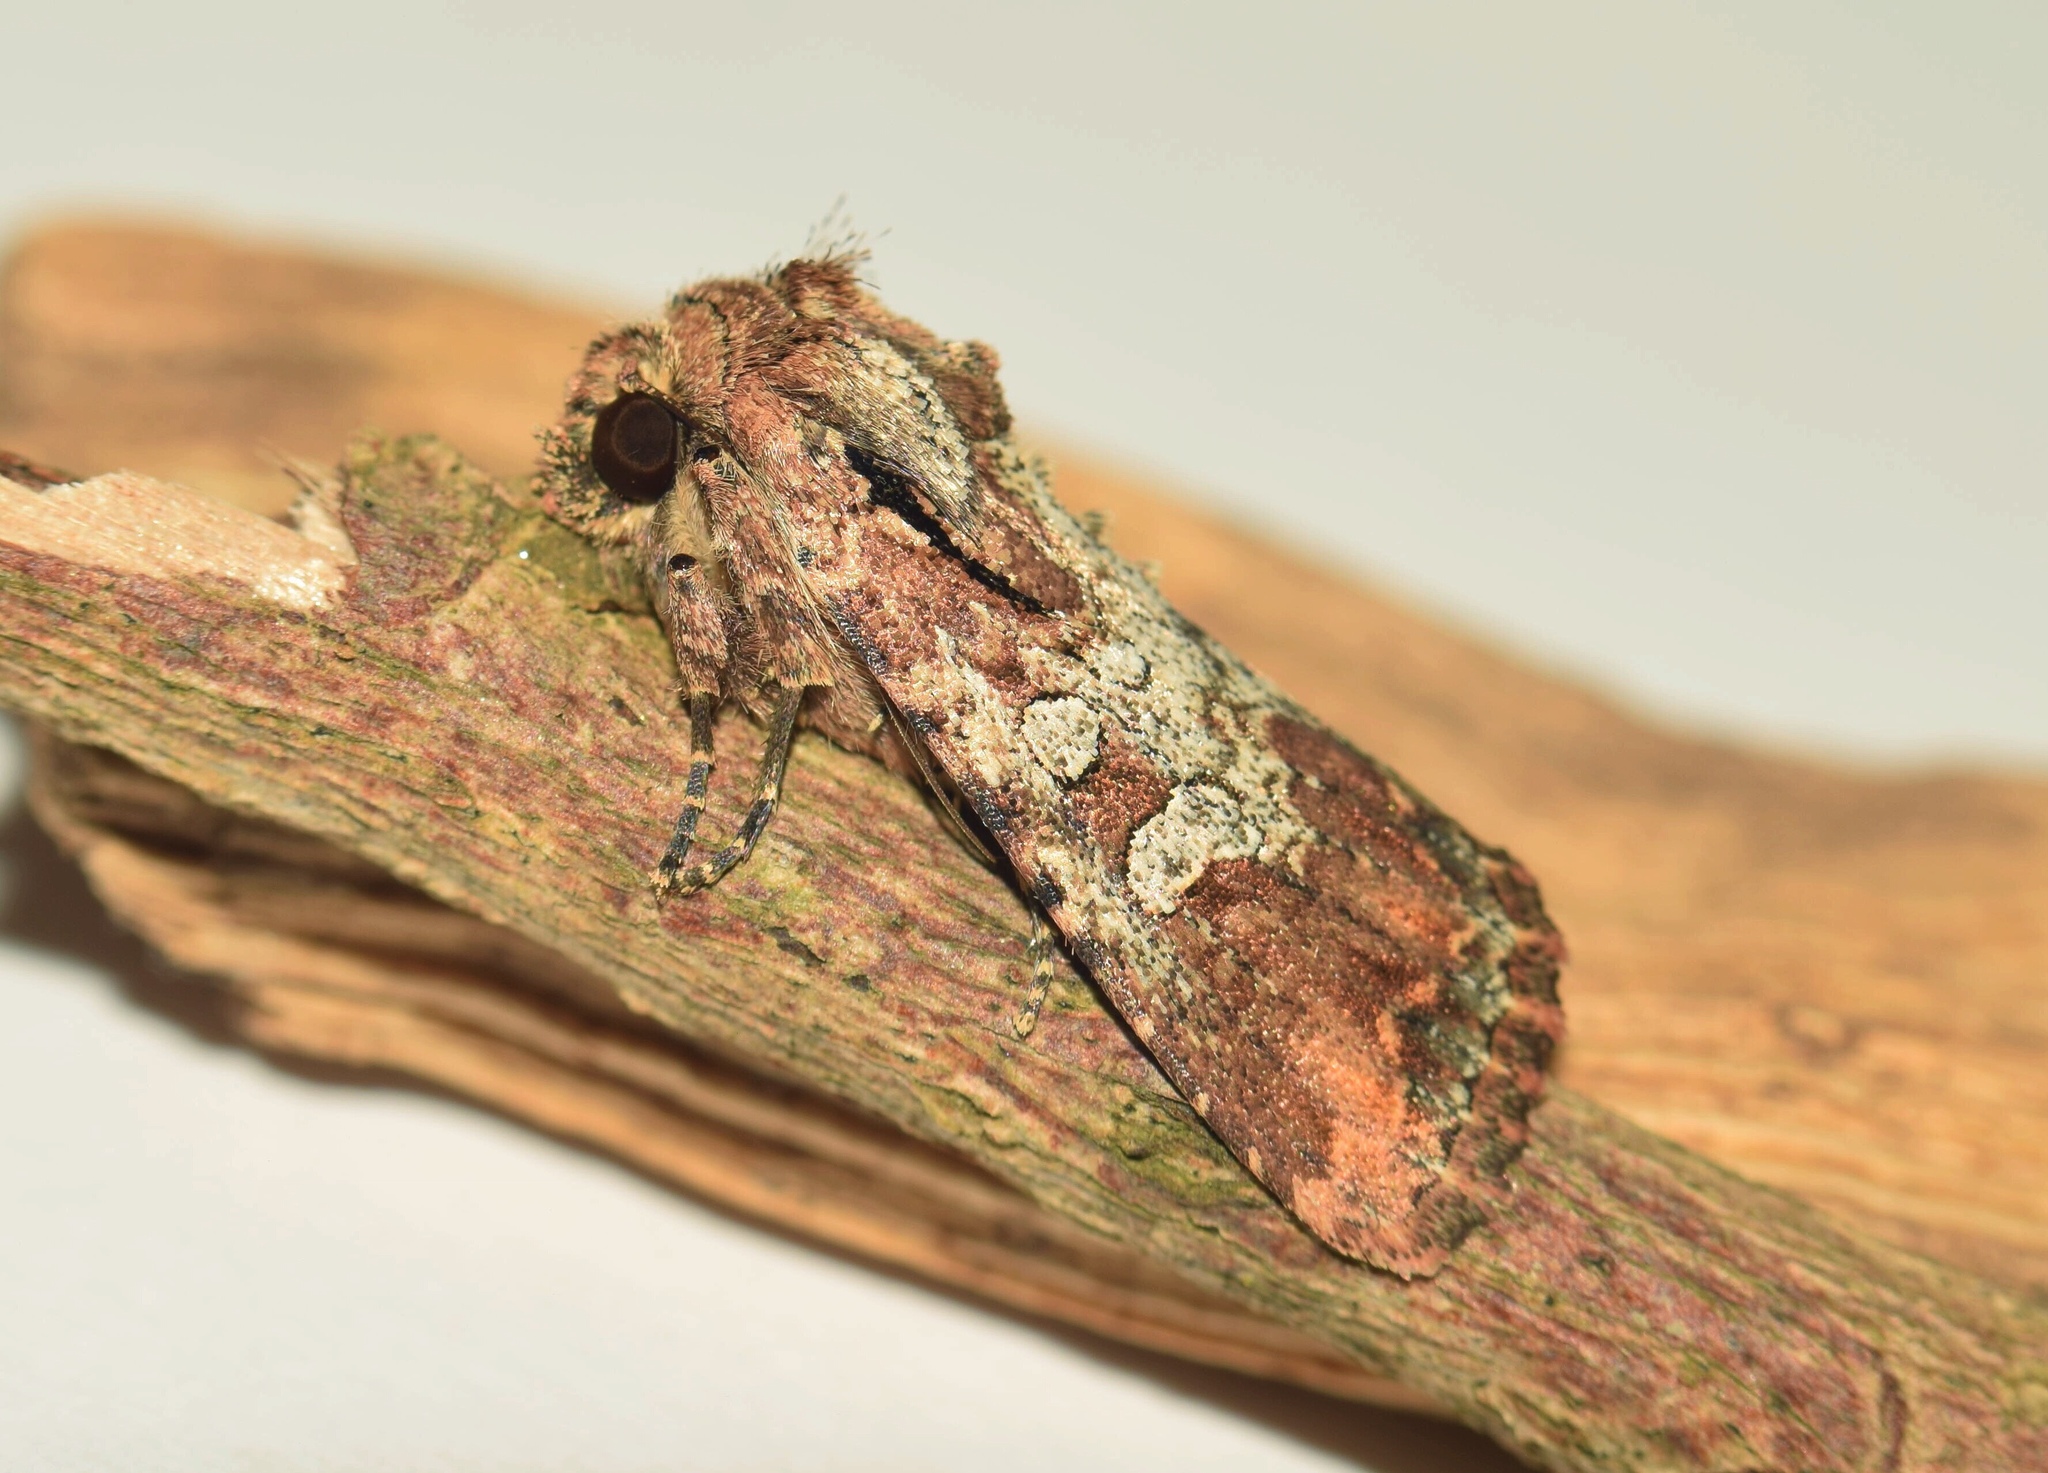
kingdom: Animalia
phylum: Arthropoda
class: Insecta
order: Lepidoptera
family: Noctuidae
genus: Omphalestra
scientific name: Omphalestra mesoglauca
